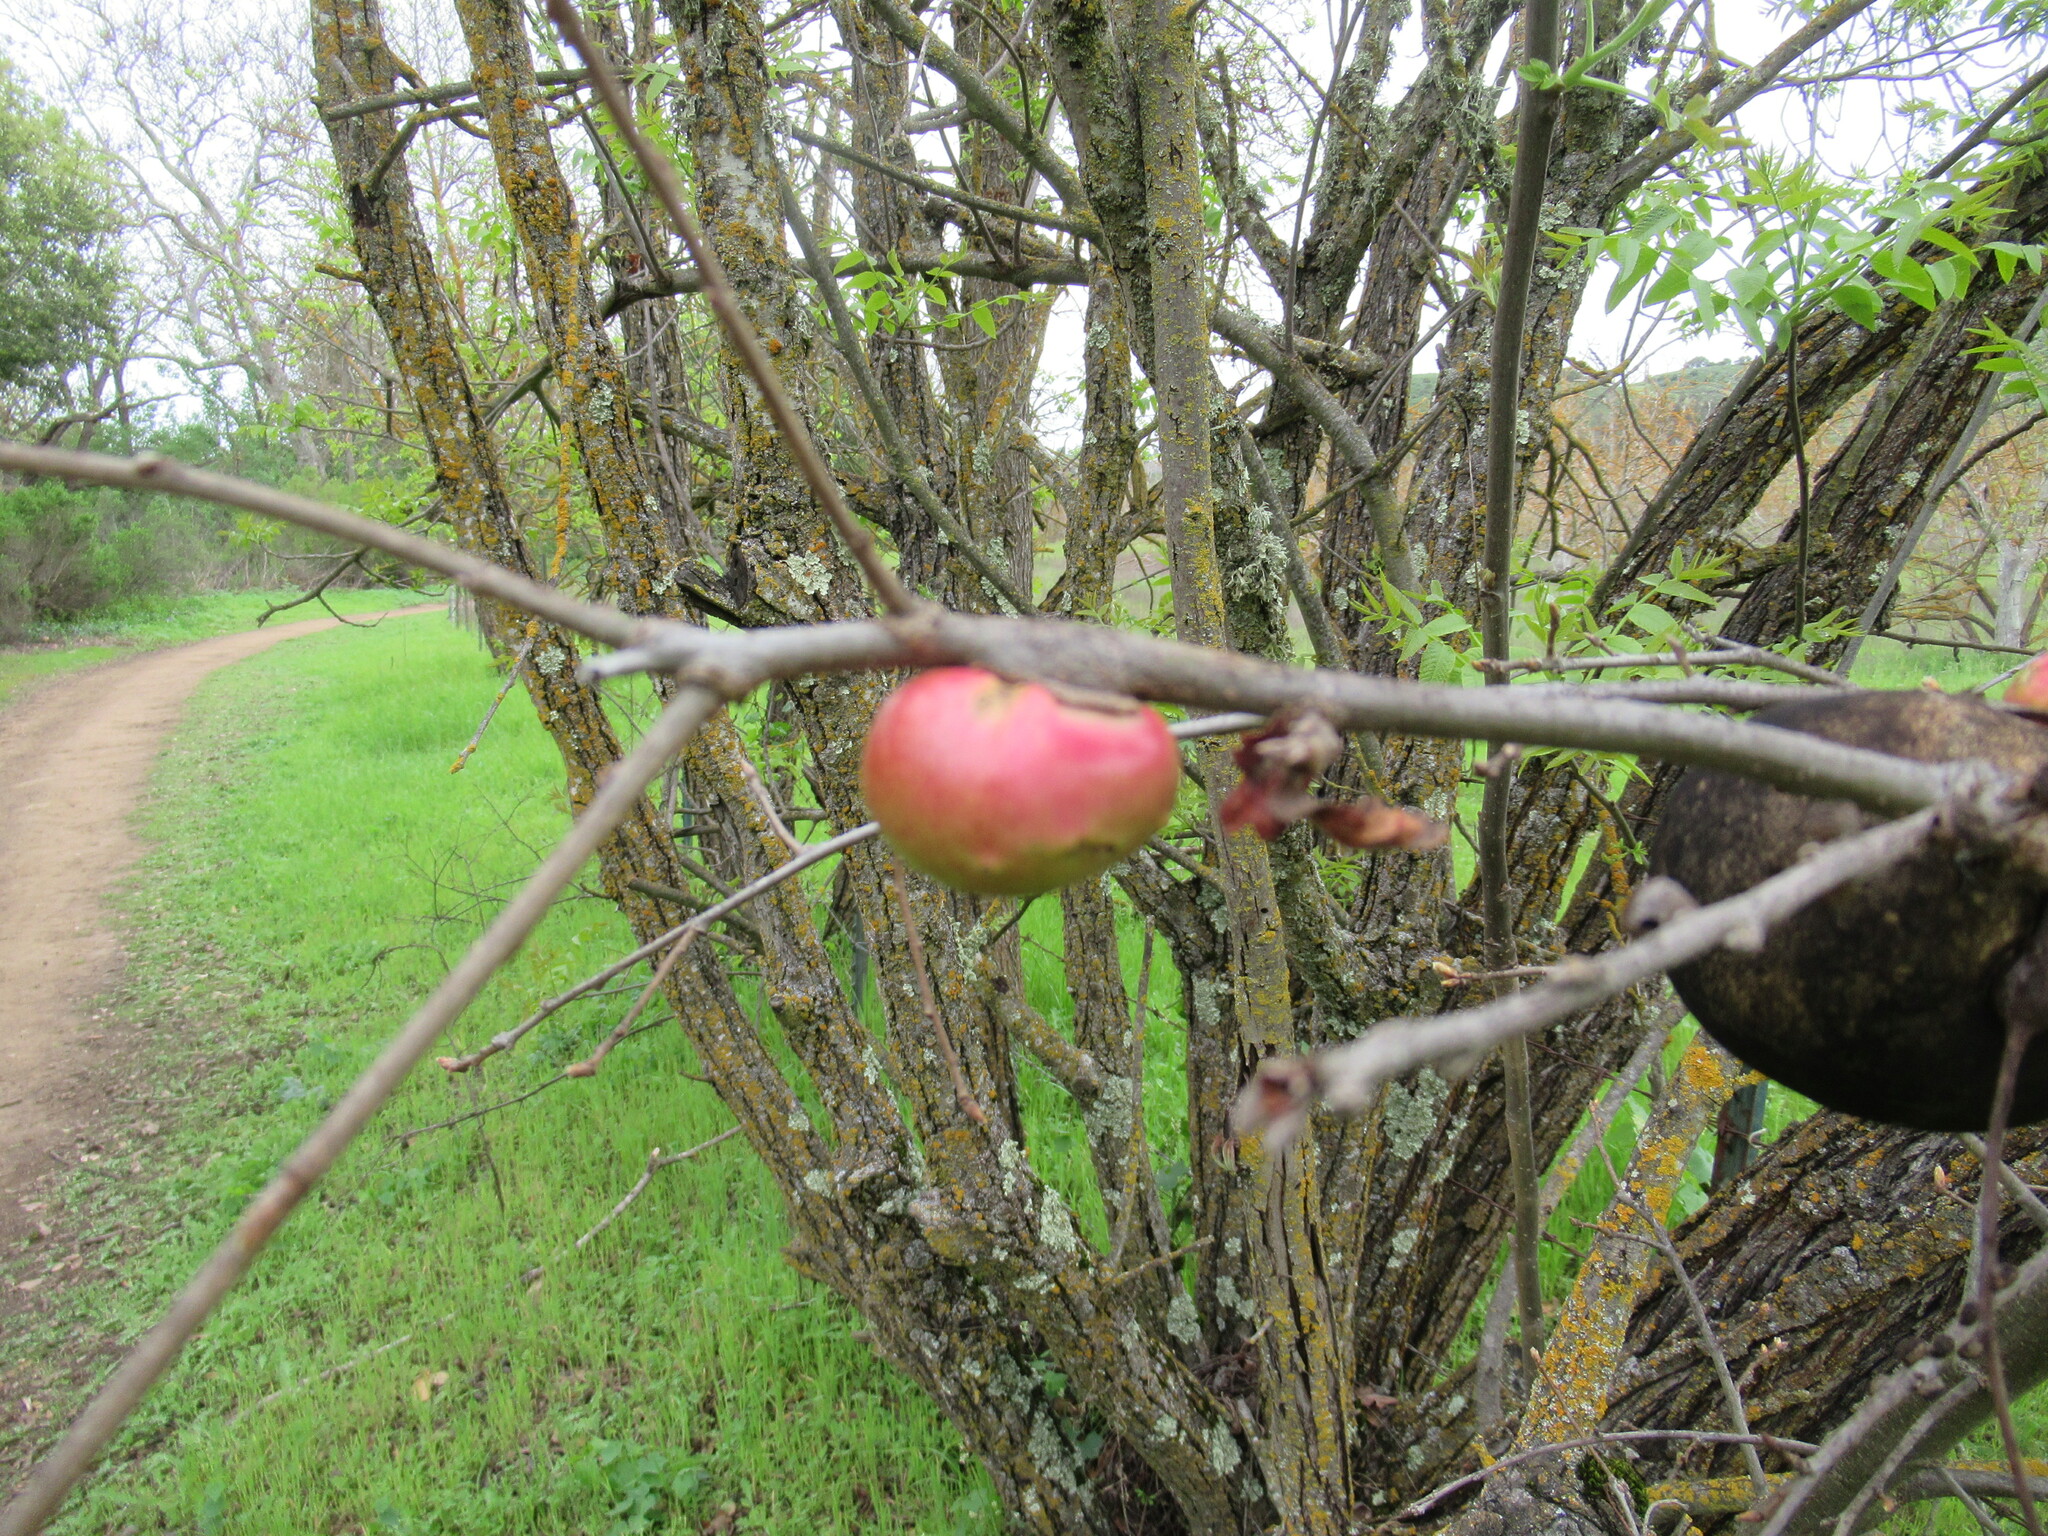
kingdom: Animalia
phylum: Arthropoda
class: Insecta
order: Hymenoptera
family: Cynipidae
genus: Andricus
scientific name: Andricus quercuscalifornicus
